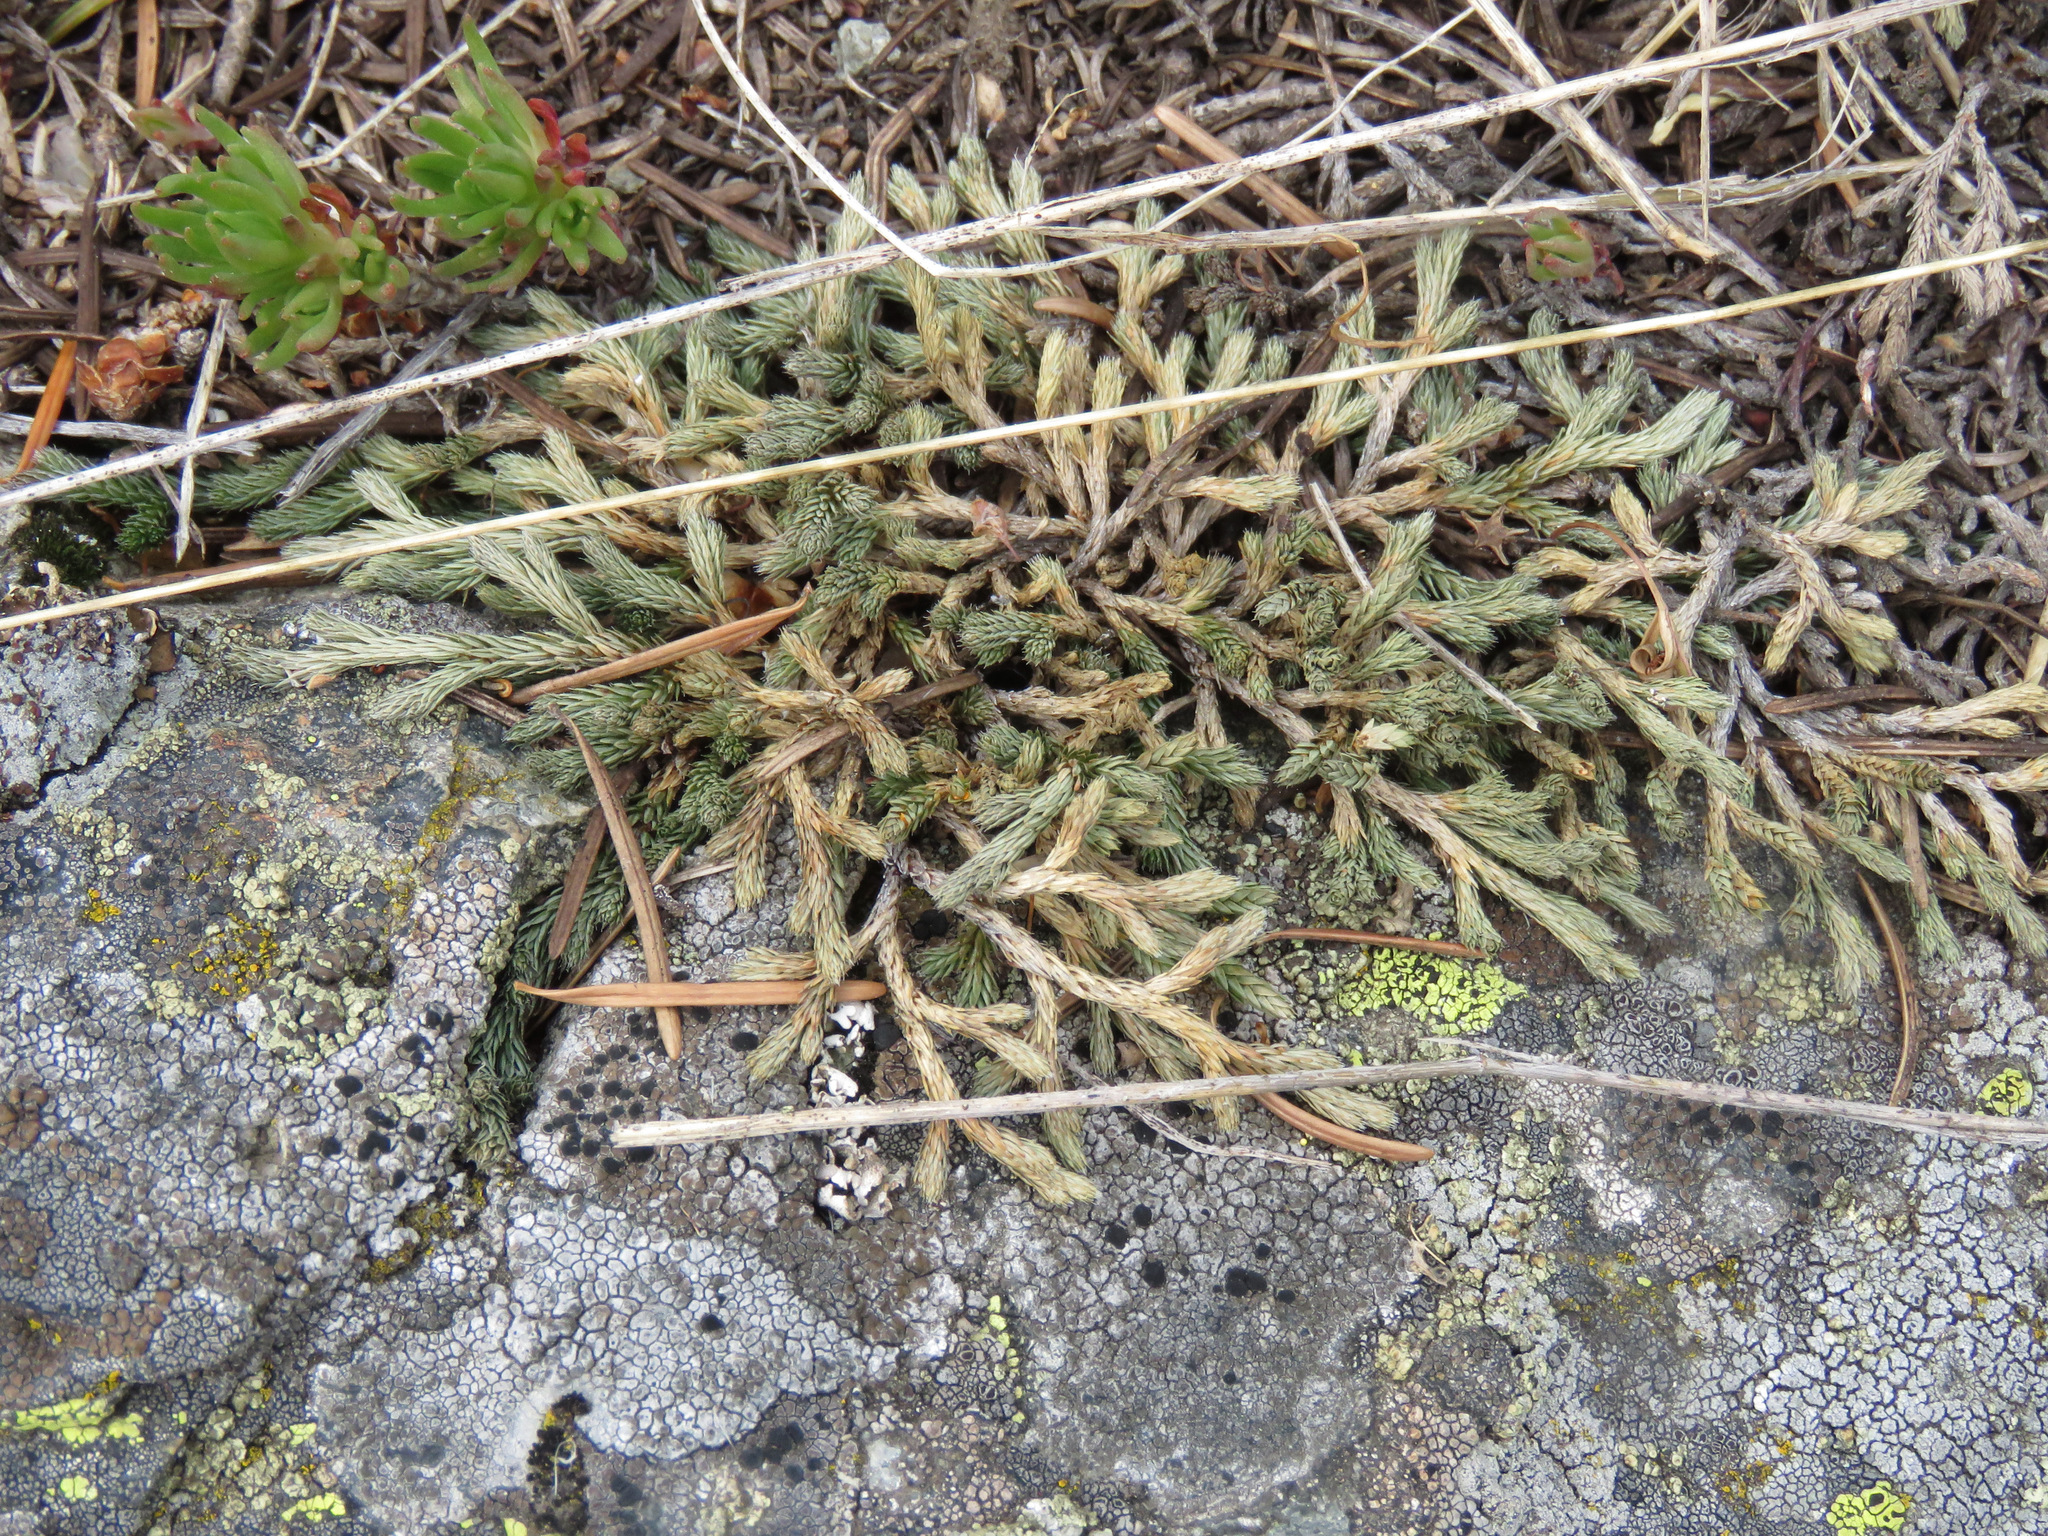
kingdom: Plantae
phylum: Tracheophyta
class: Lycopodiopsida
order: Selaginellales
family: Selaginellaceae
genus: Selaginella
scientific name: Selaginella wallacei
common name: Wallace's selaginella
